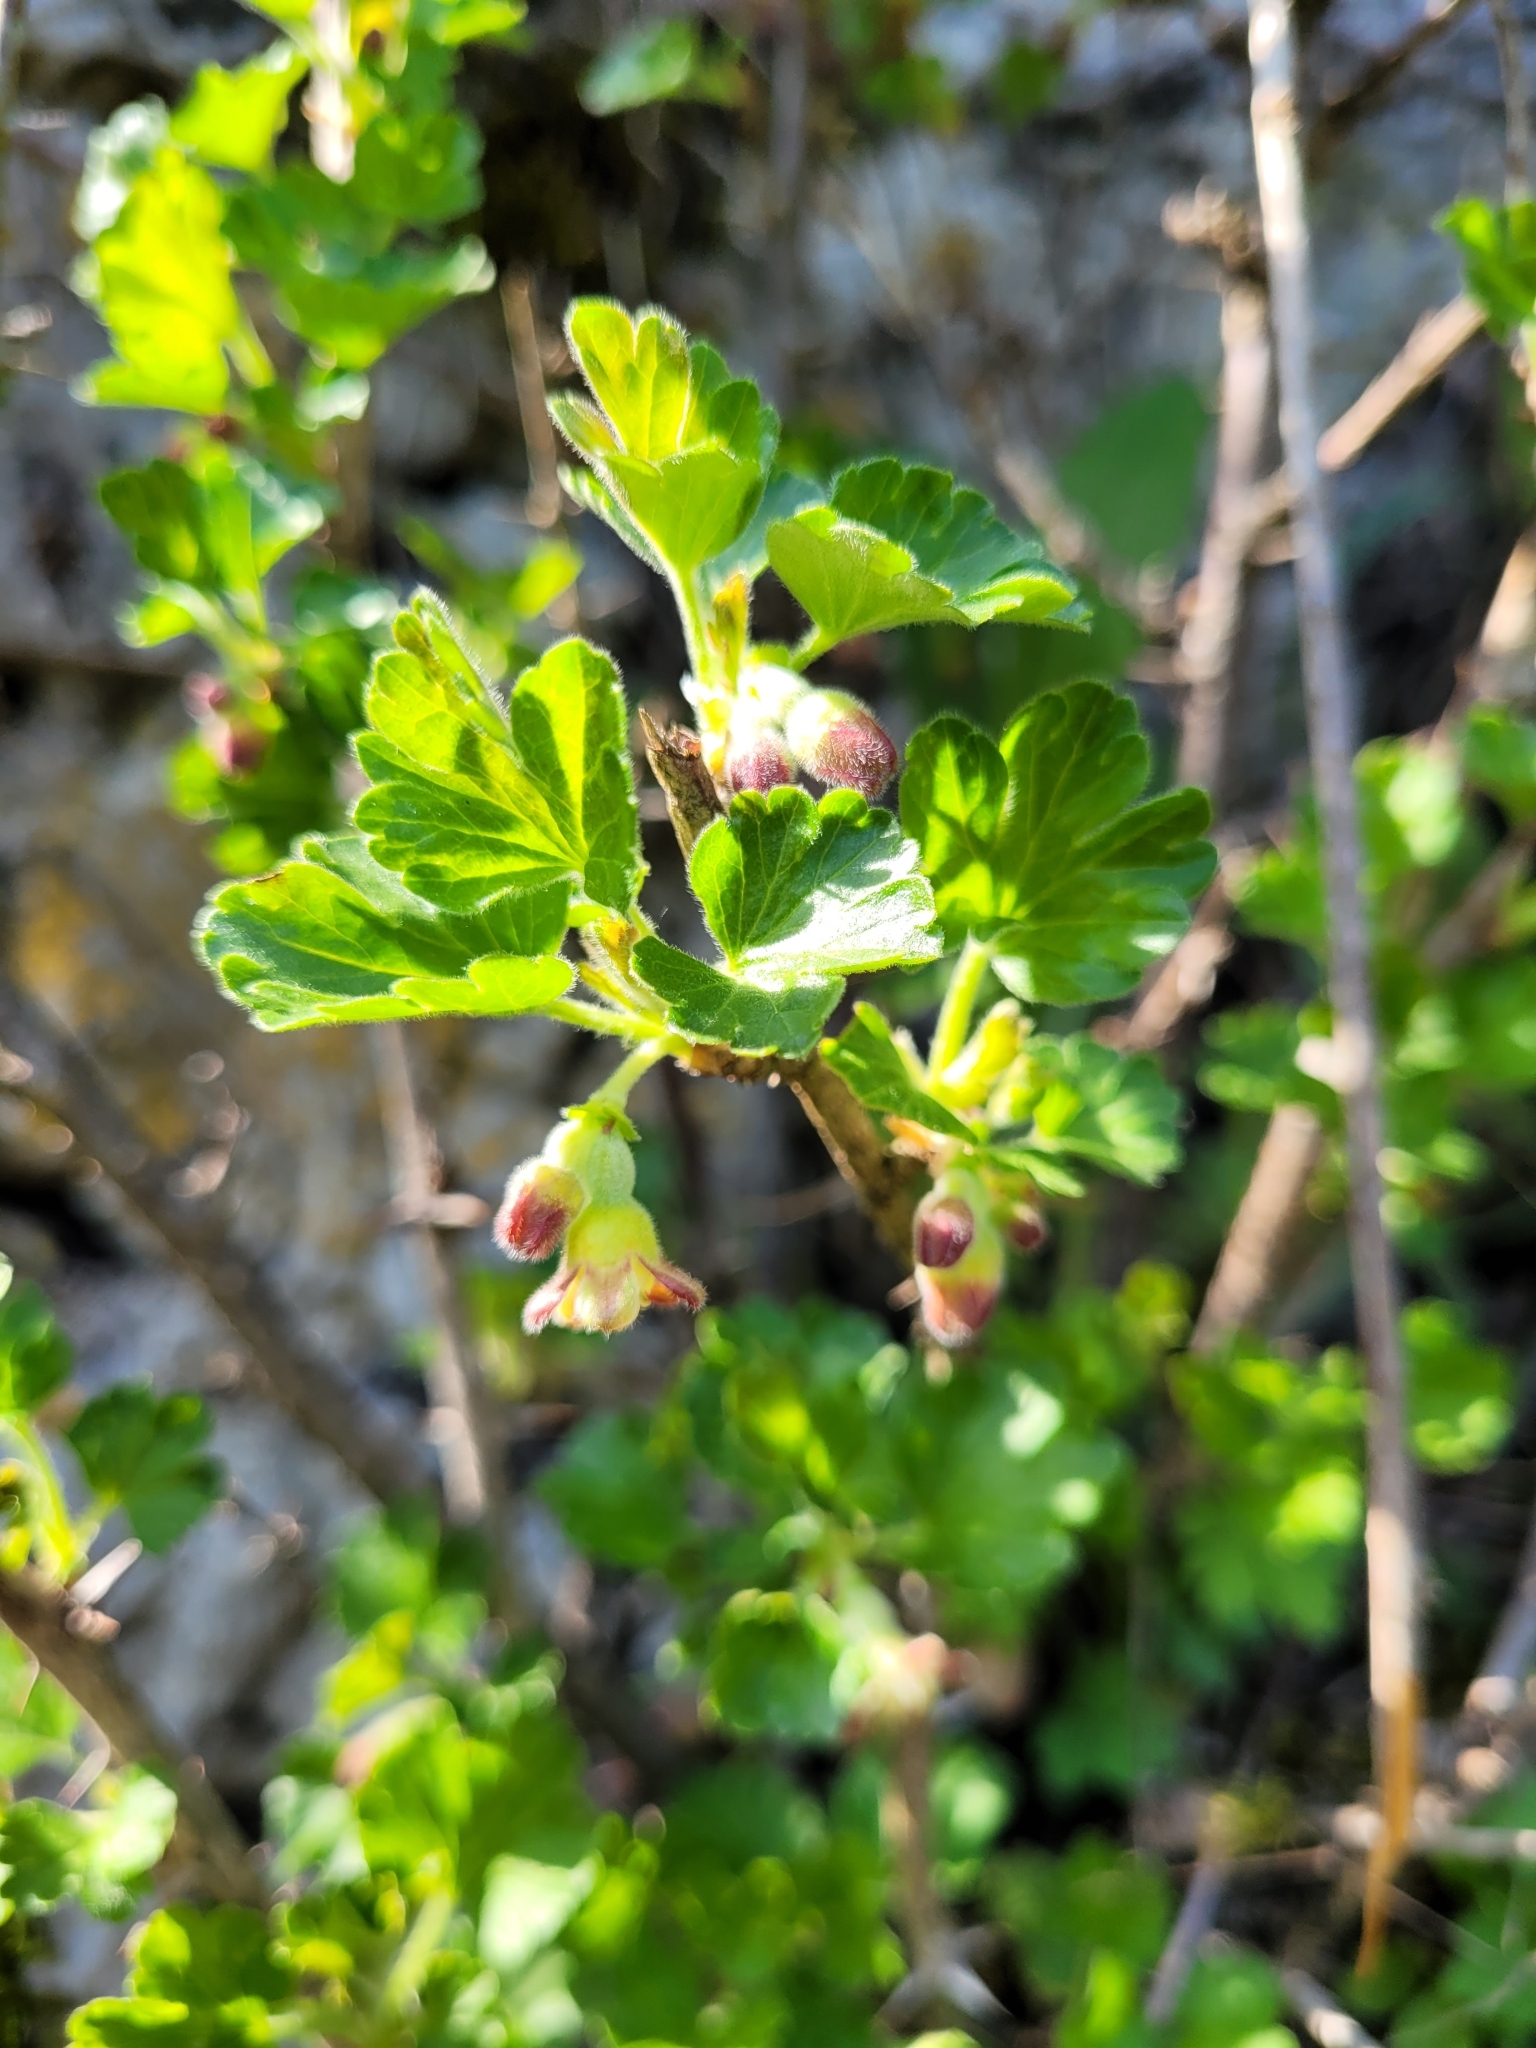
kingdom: Plantae
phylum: Tracheophyta
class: Magnoliopsida
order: Saxifragales
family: Grossulariaceae
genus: Ribes
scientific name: Ribes uva-crispa
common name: Gooseberry
